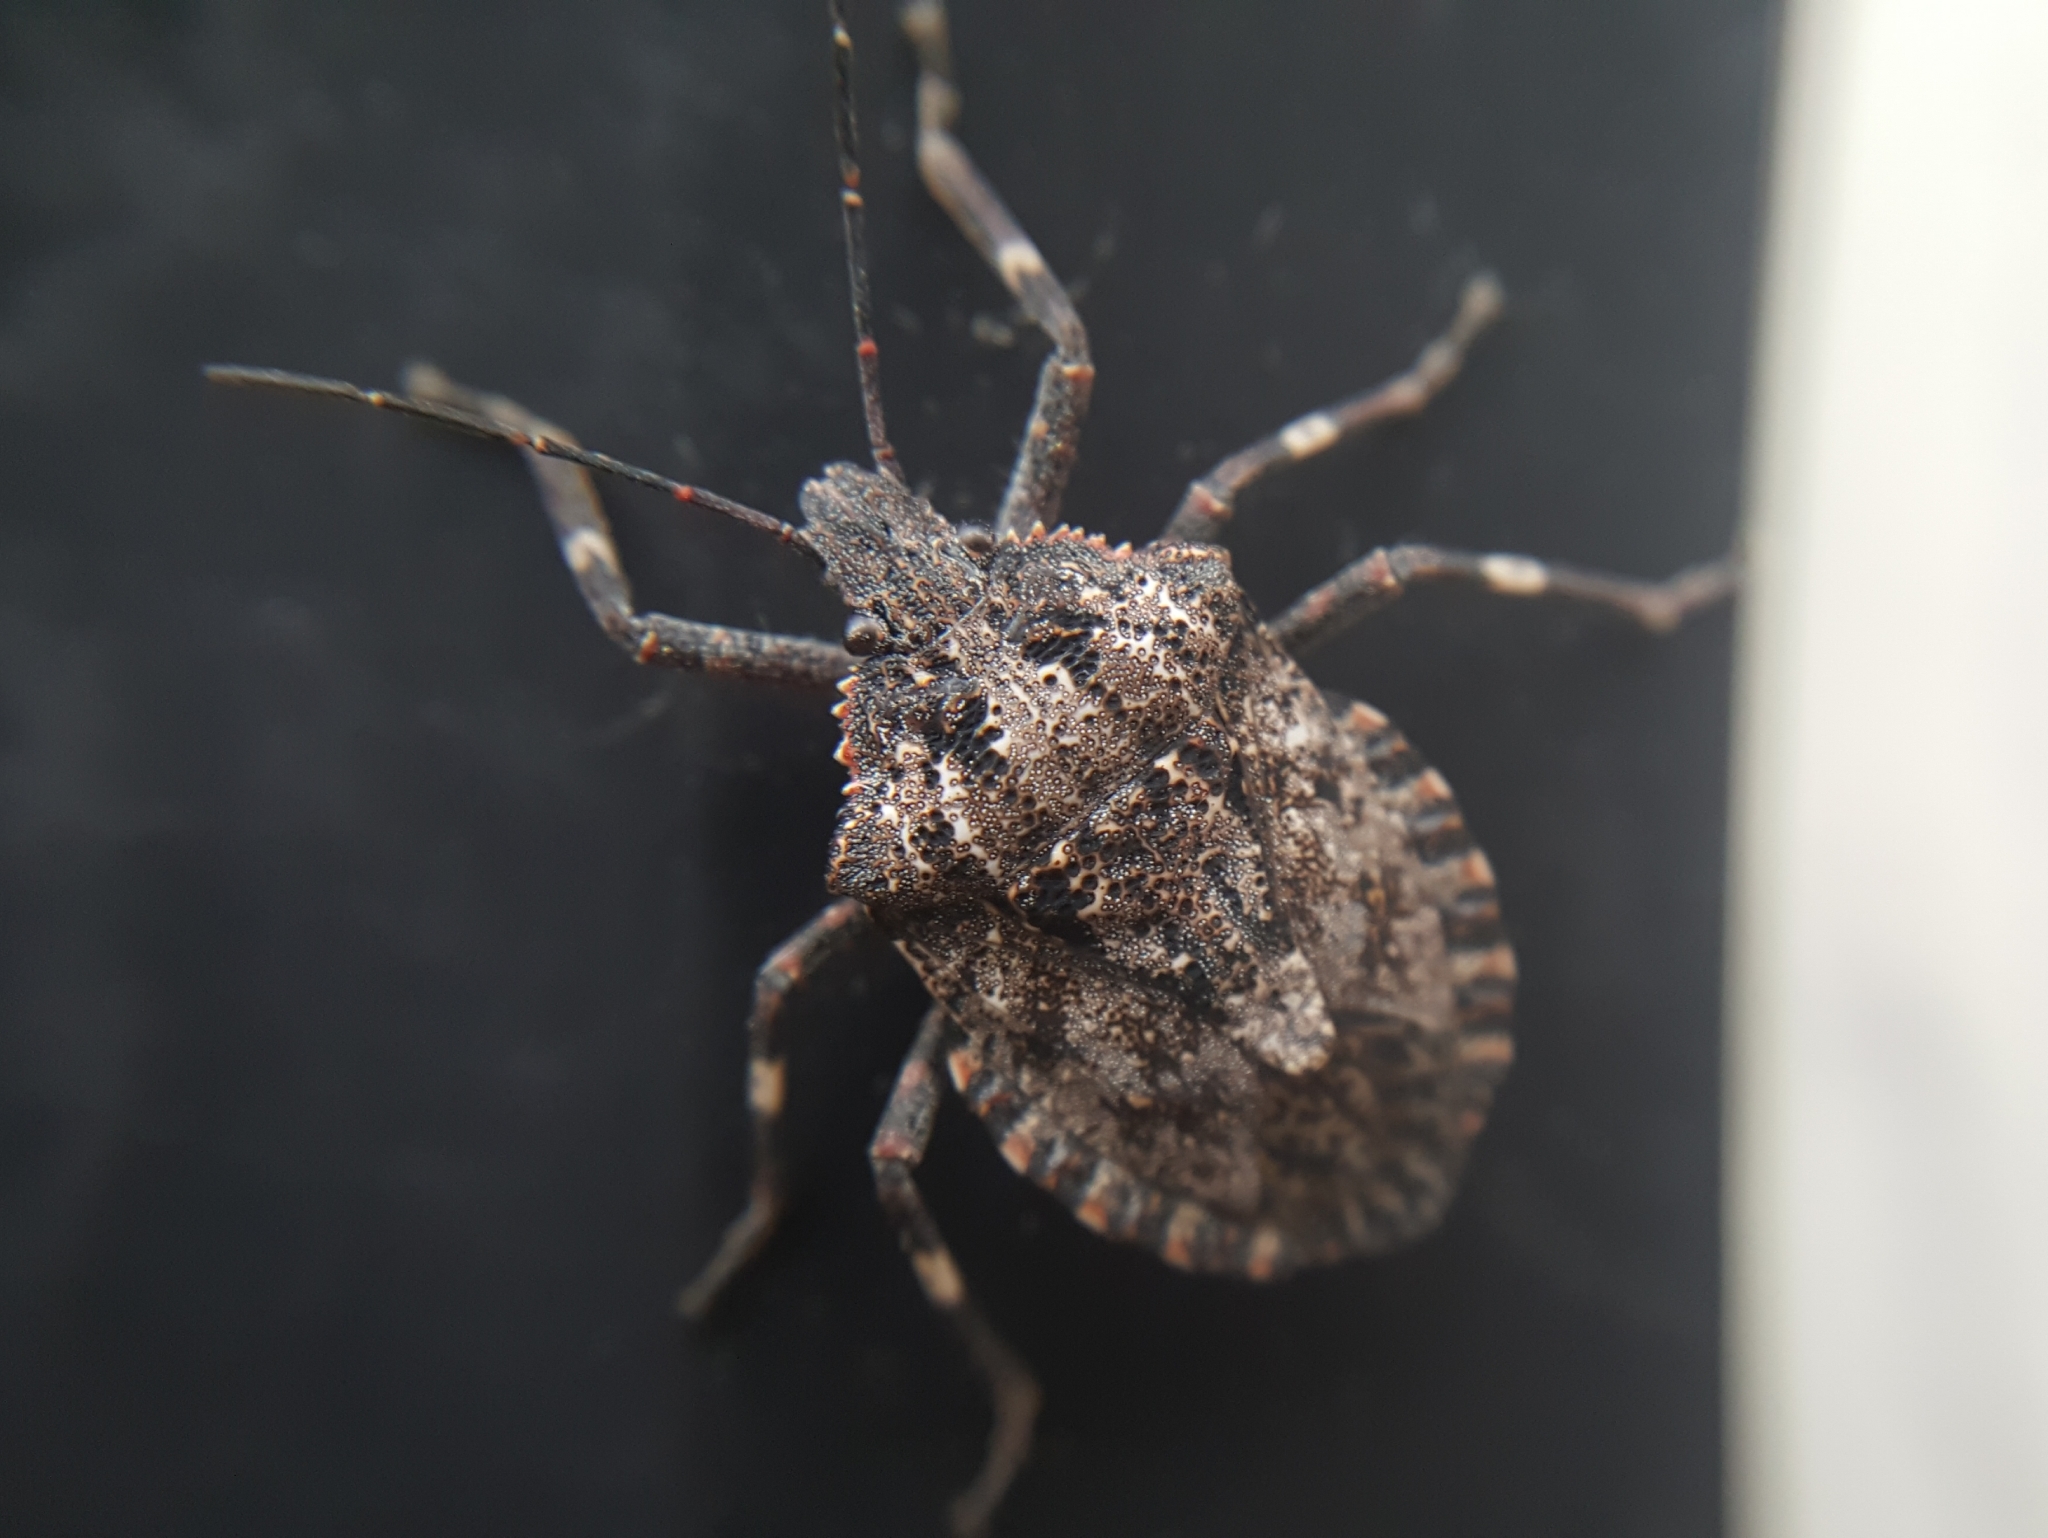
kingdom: Animalia
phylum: Arthropoda
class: Insecta
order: Hemiptera
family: Pentatomidae
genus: Brochymena
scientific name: Brochymena affinis
